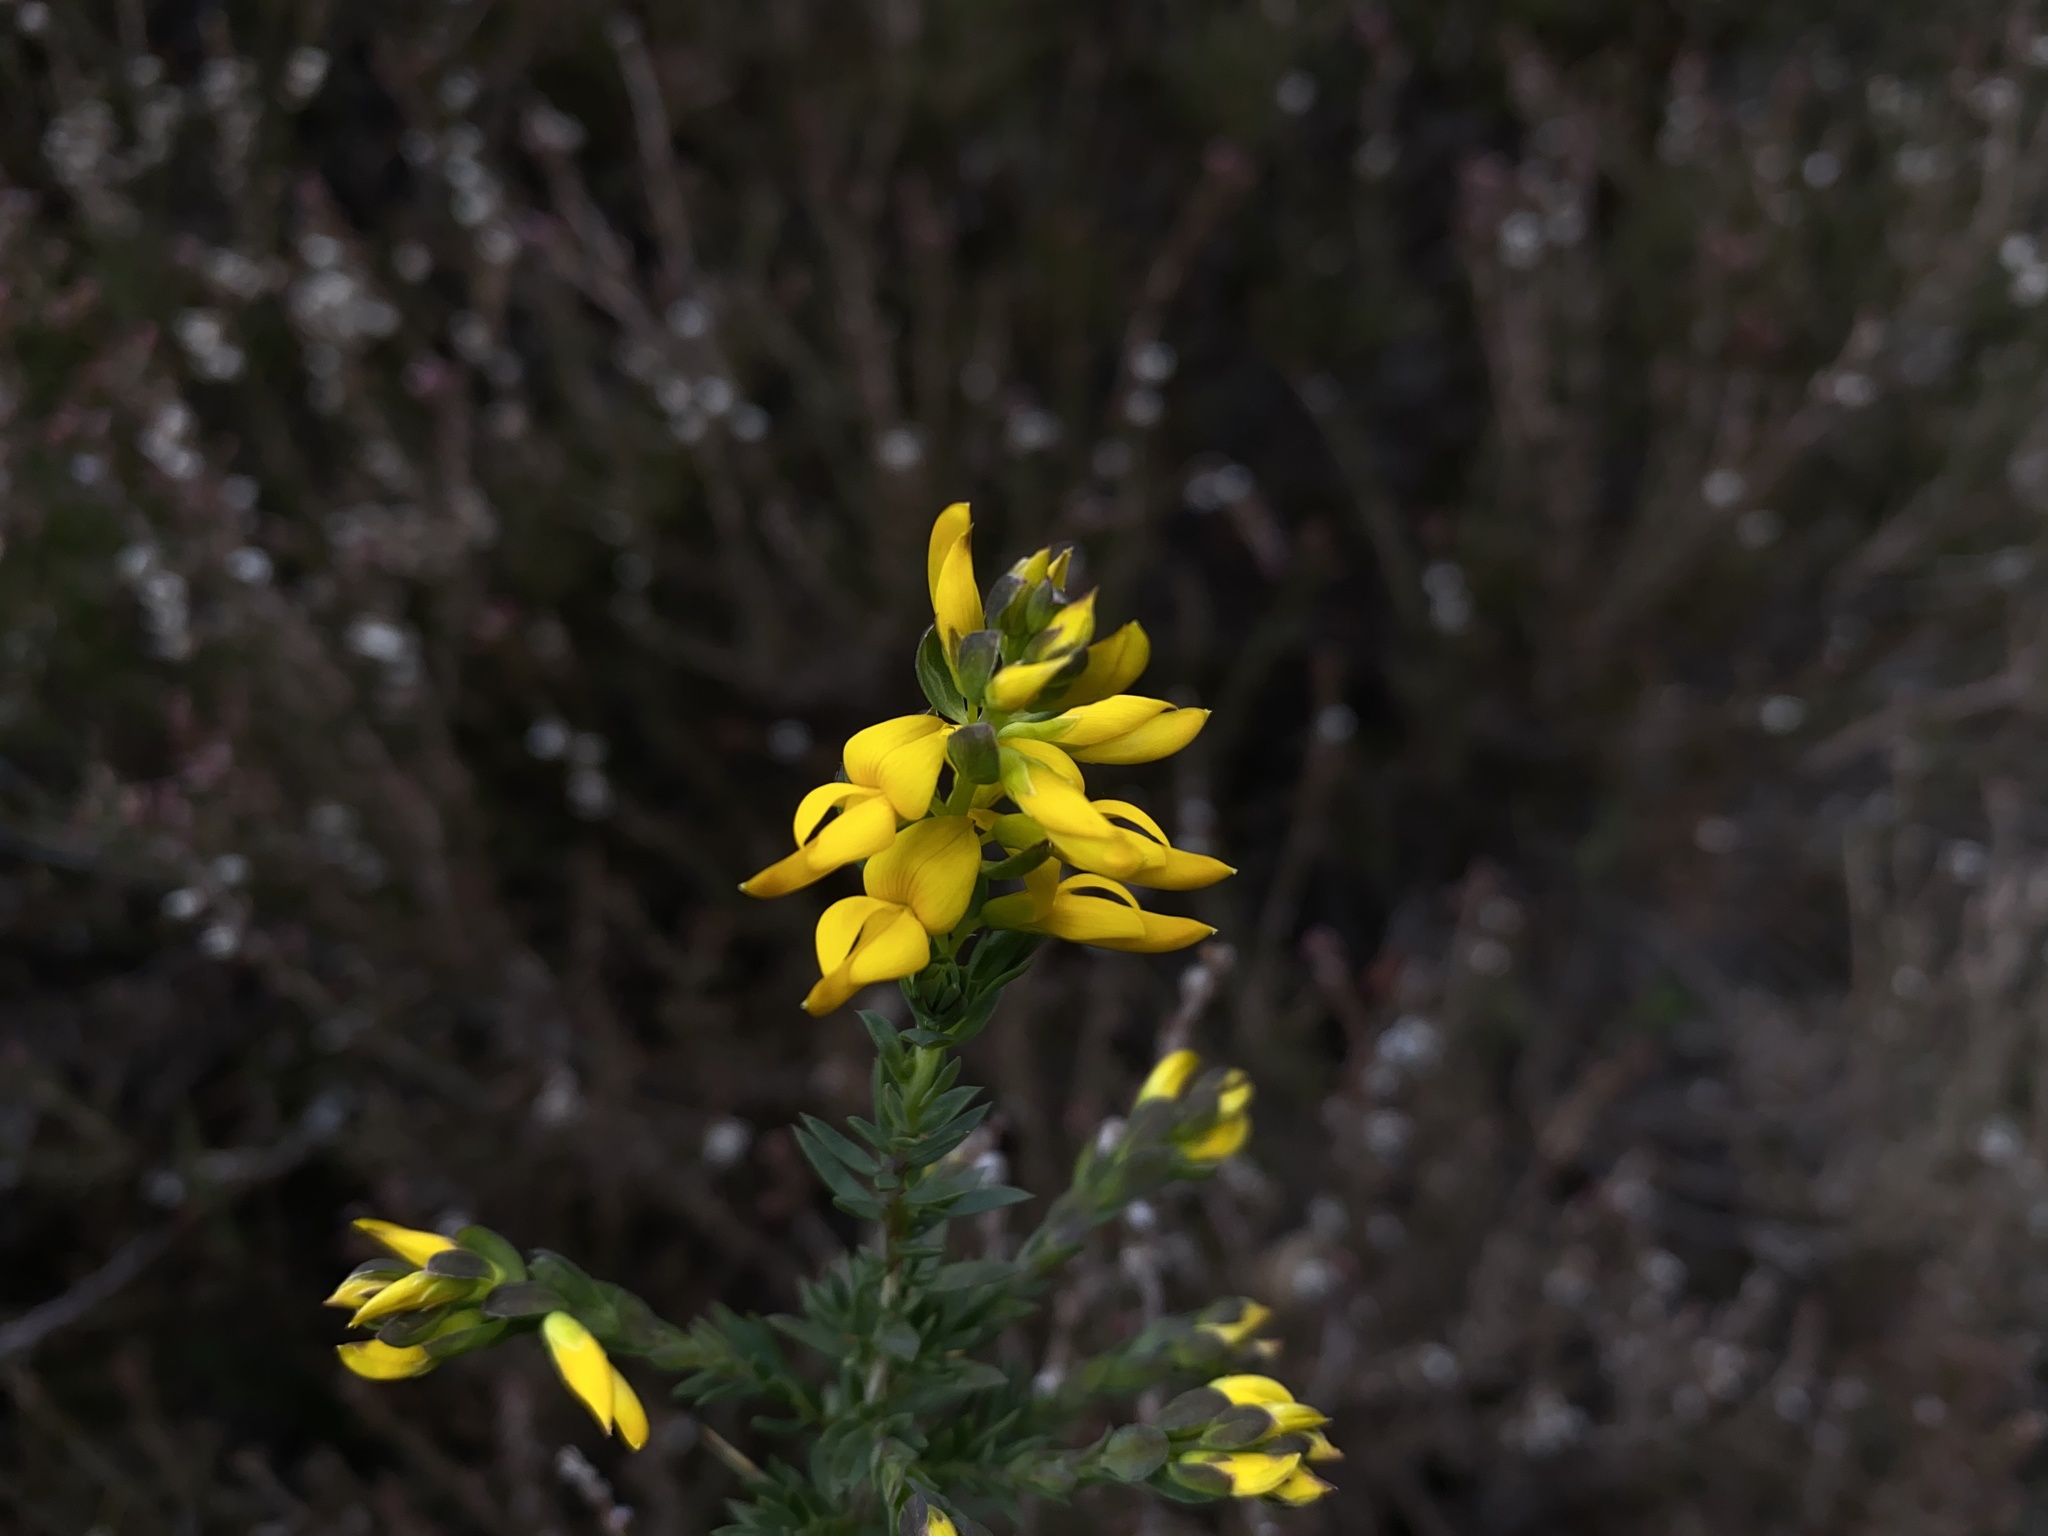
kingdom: Plantae
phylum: Tracheophyta
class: Magnoliopsida
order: Fabales
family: Fabaceae
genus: Genista
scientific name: Genista anglica
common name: Petty whin
